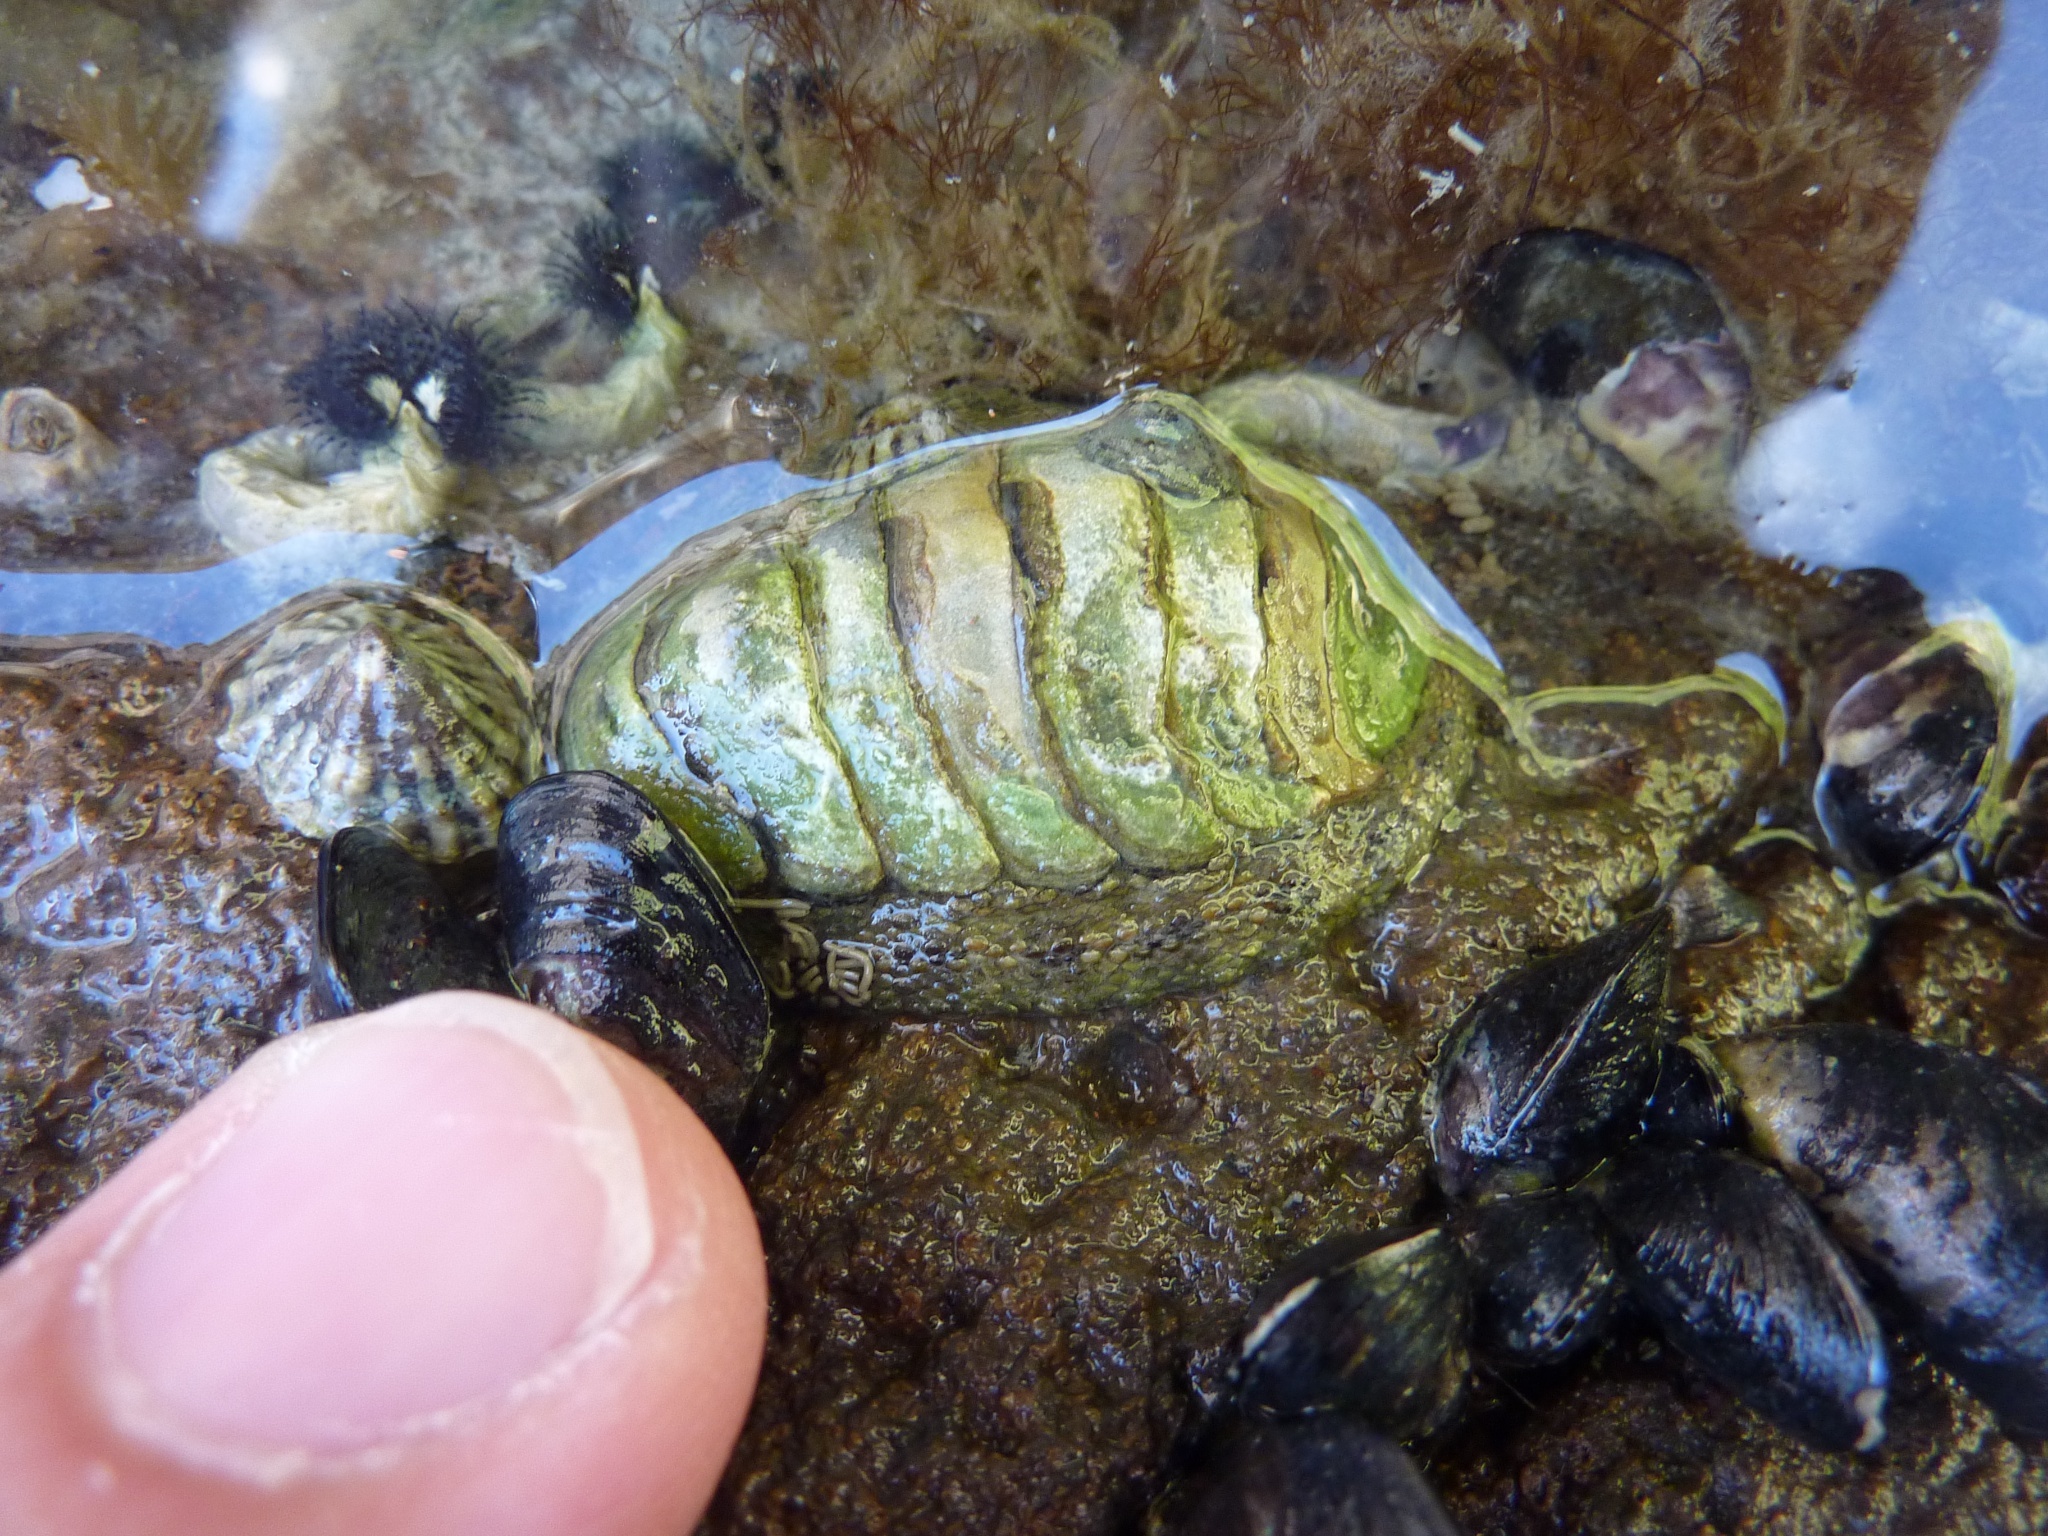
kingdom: Animalia
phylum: Mollusca
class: Polyplacophora
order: Chitonida
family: Chitonidae
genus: Sypharochiton
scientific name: Sypharochiton pelliserpentis
